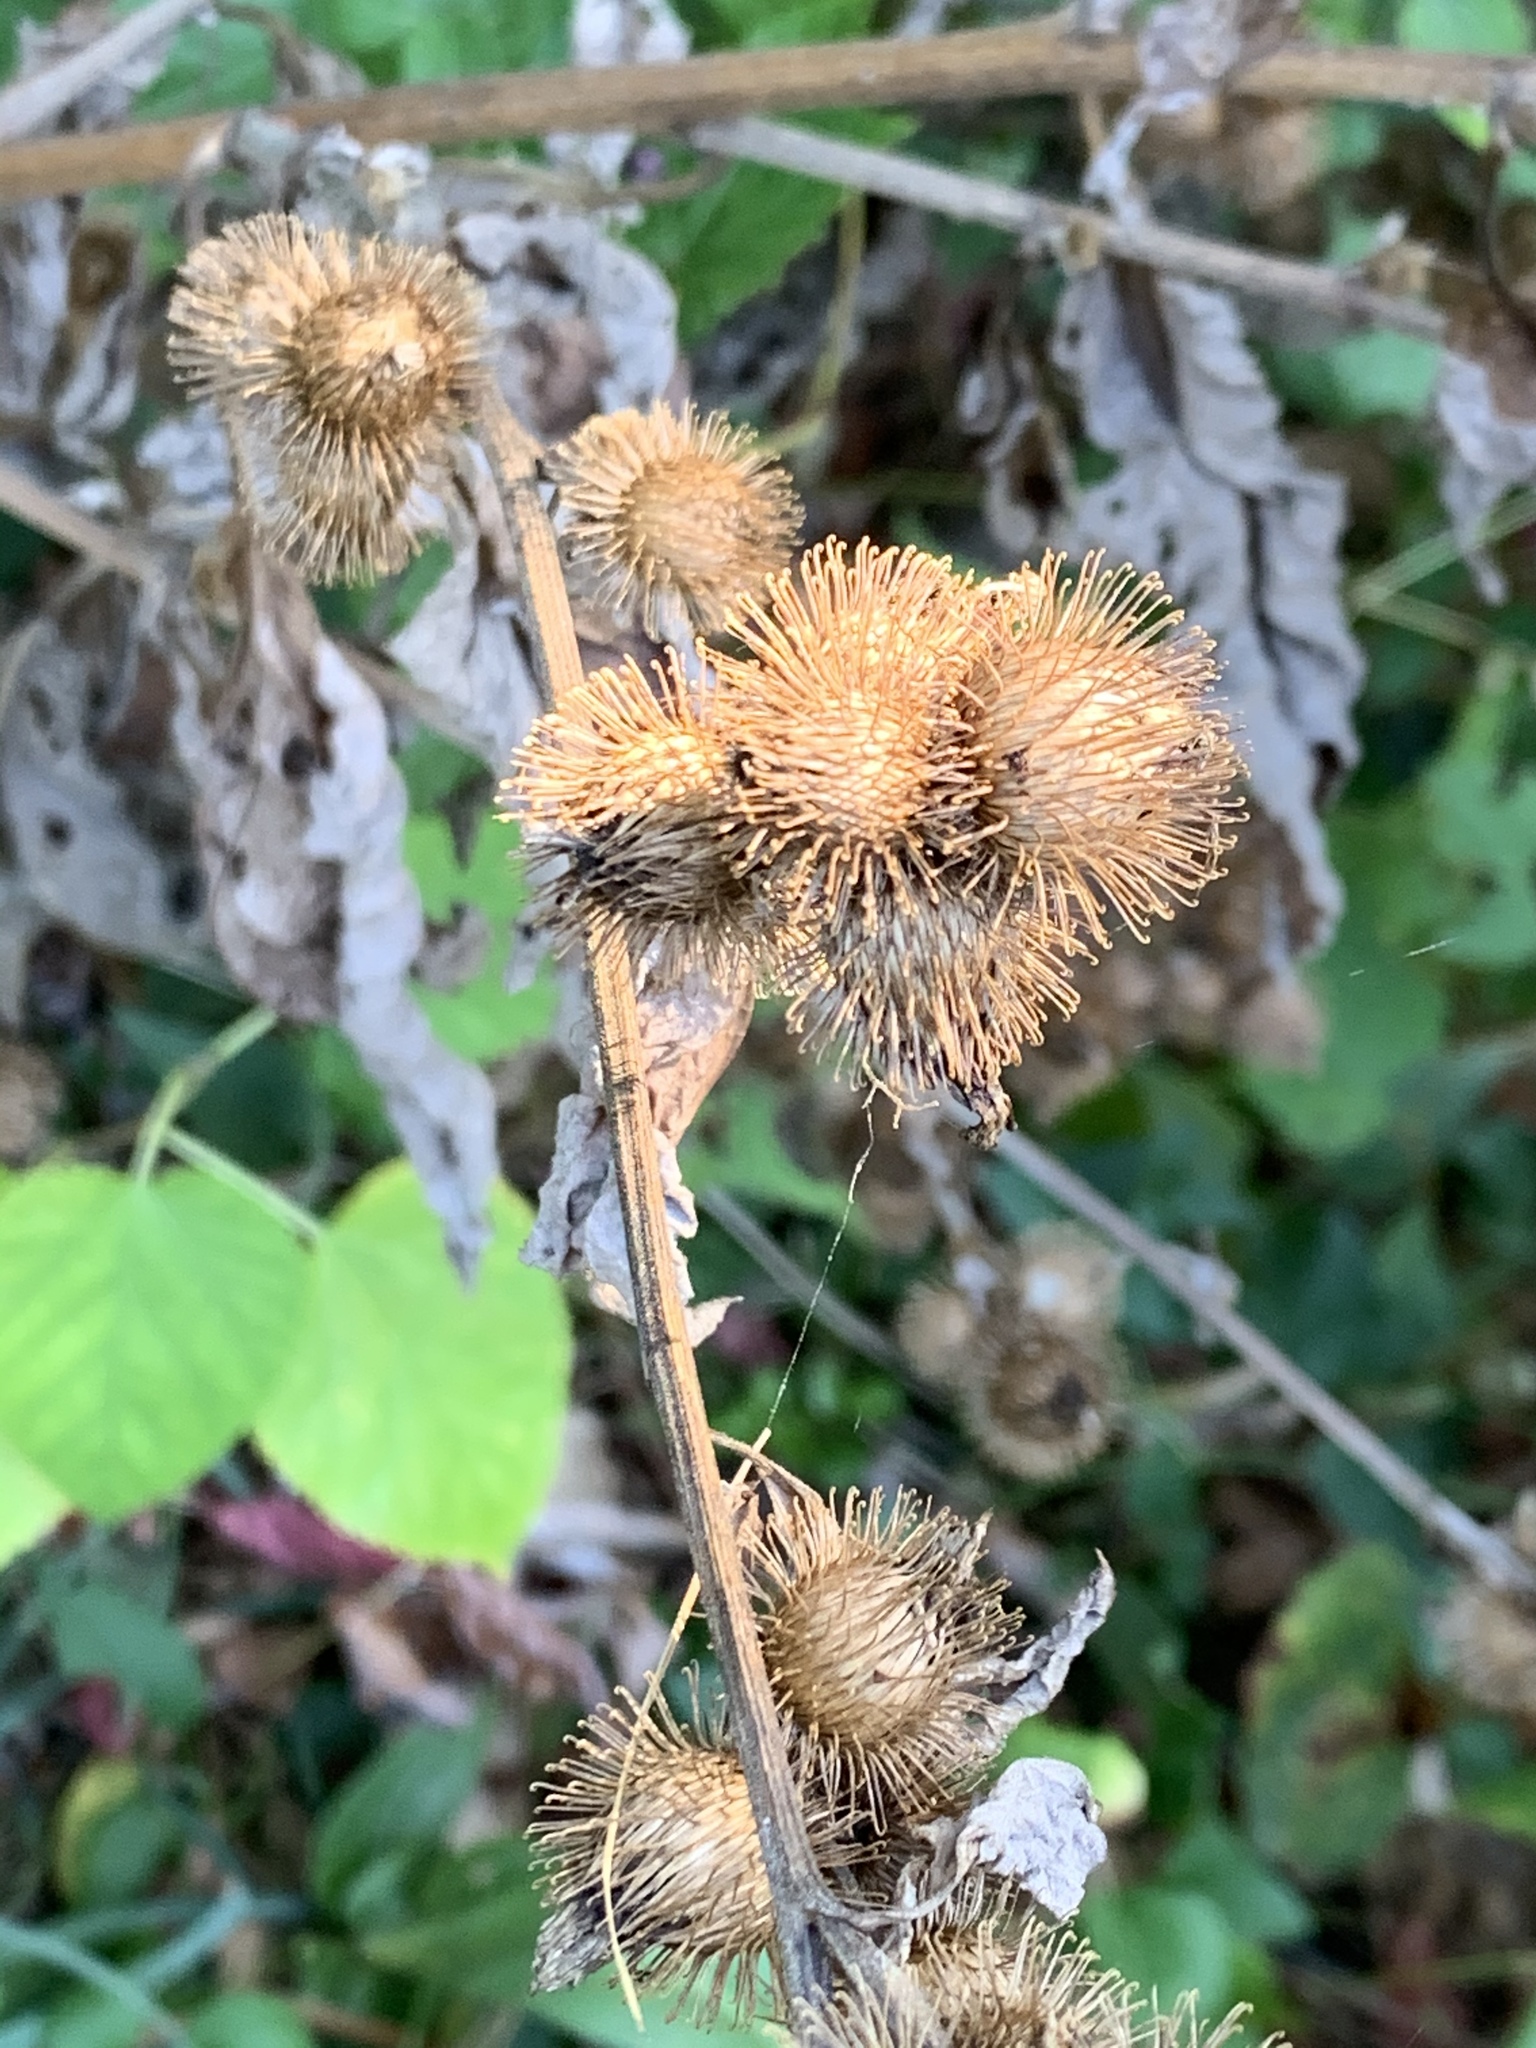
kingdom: Plantae
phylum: Tracheophyta
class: Magnoliopsida
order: Asterales
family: Asteraceae
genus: Arctium
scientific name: Arctium minus
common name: Lesser burdock
